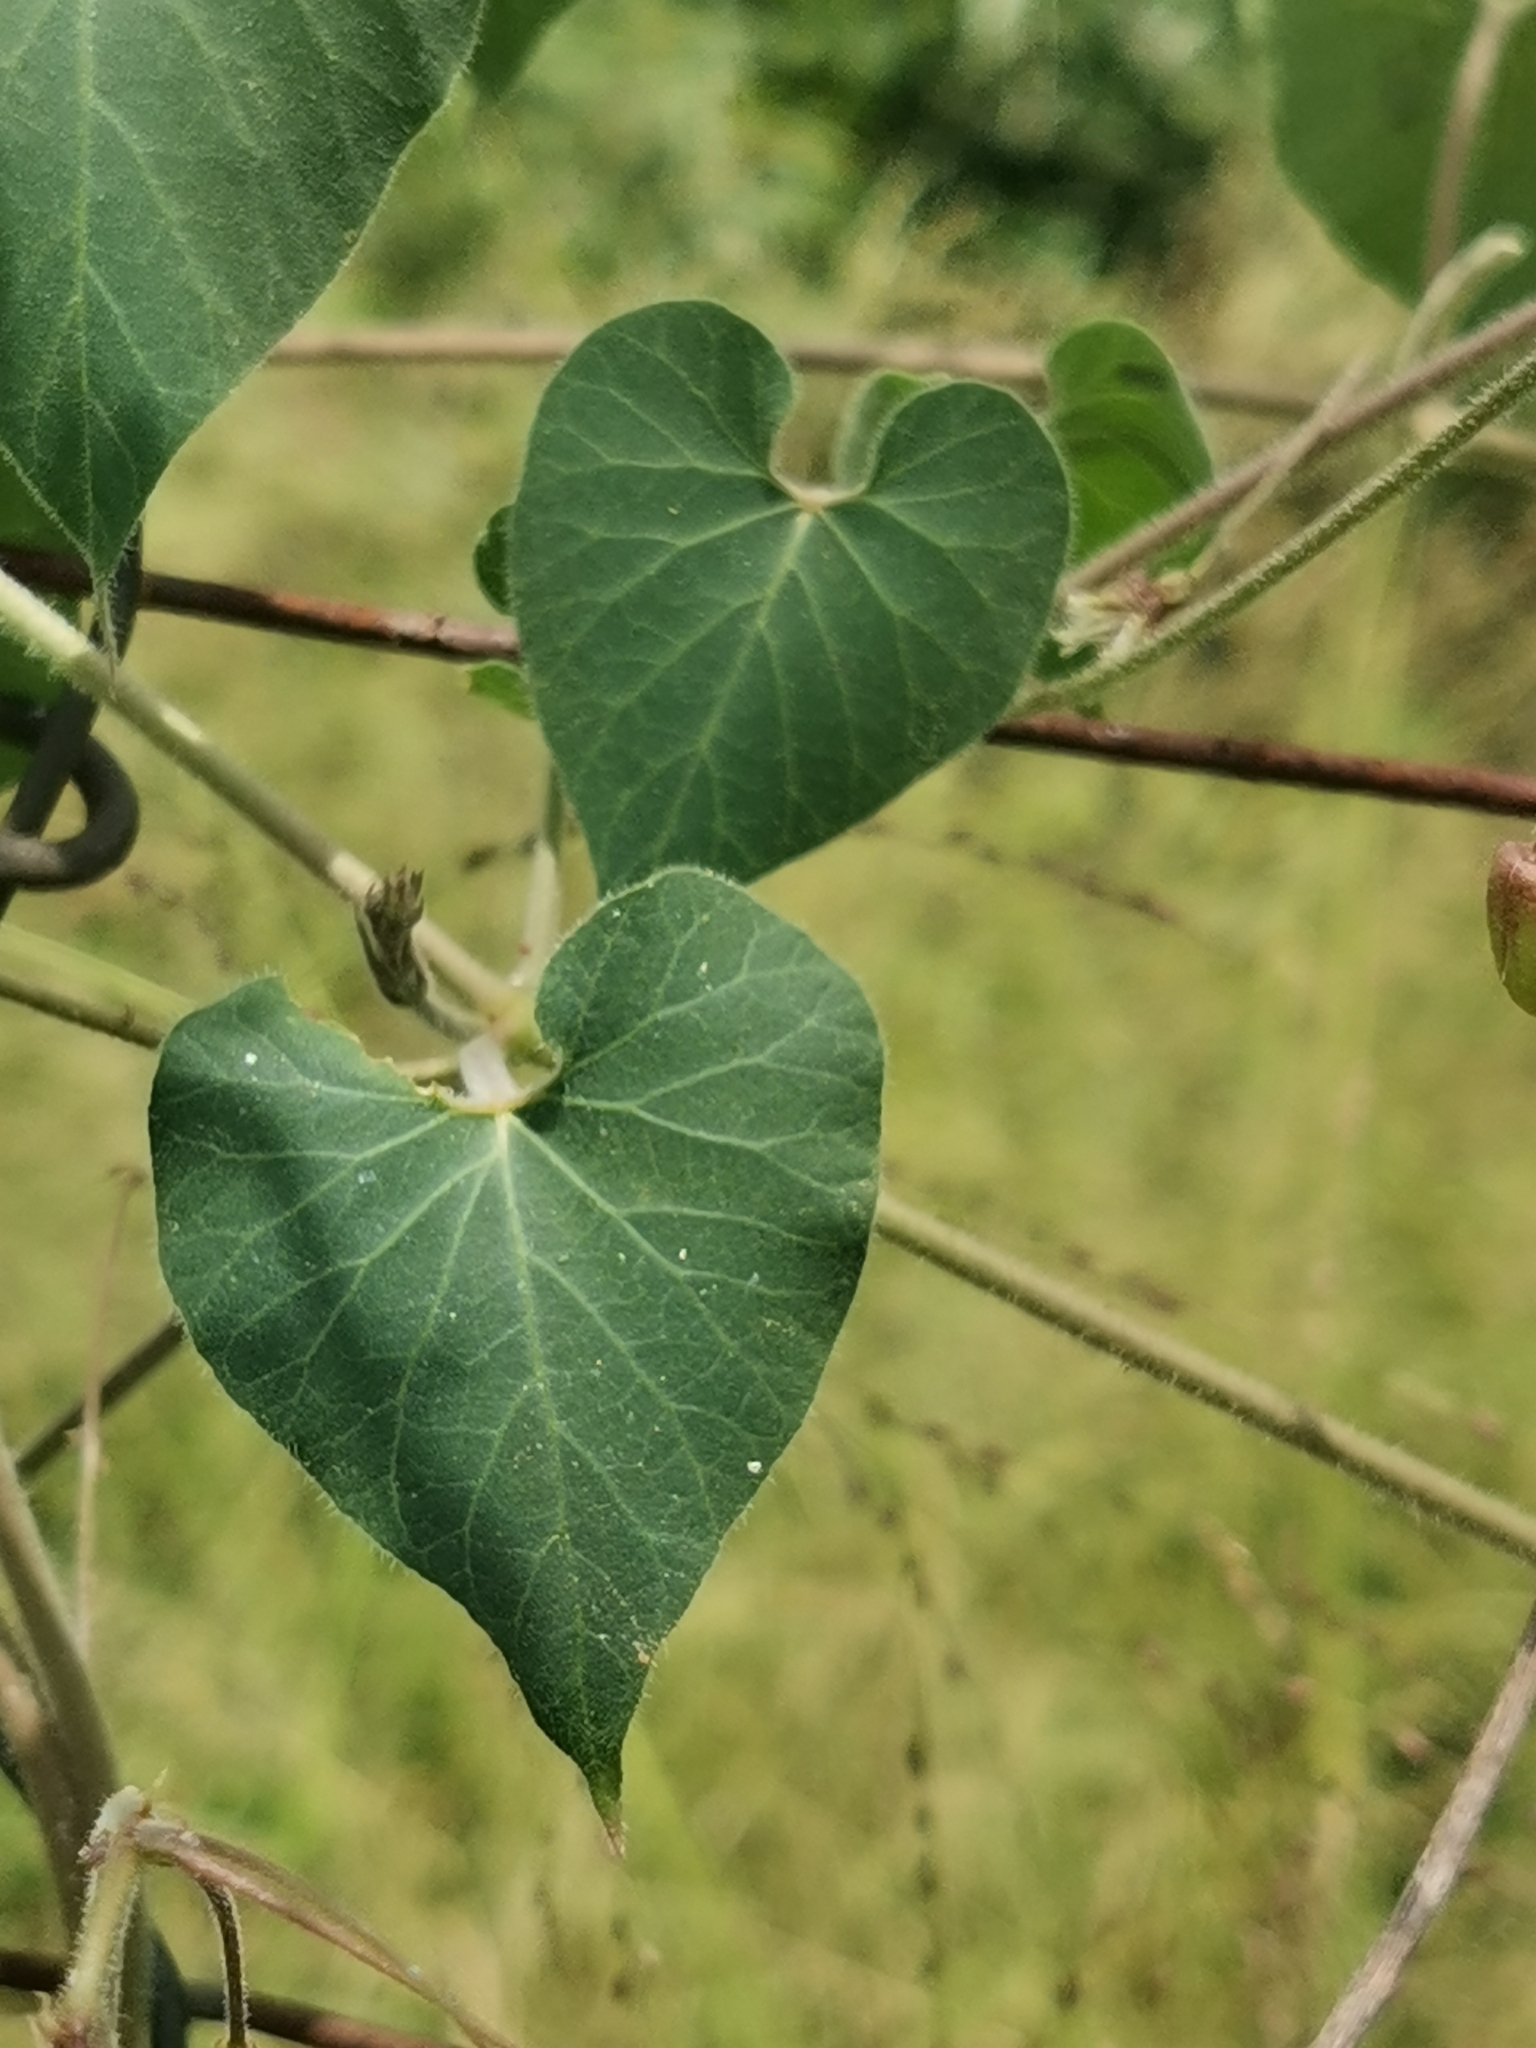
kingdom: Plantae
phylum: Tracheophyta
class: Magnoliopsida
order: Gentianales
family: Apocynaceae
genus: Pergularia
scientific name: Pergularia daemia
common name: Trellis-vine
